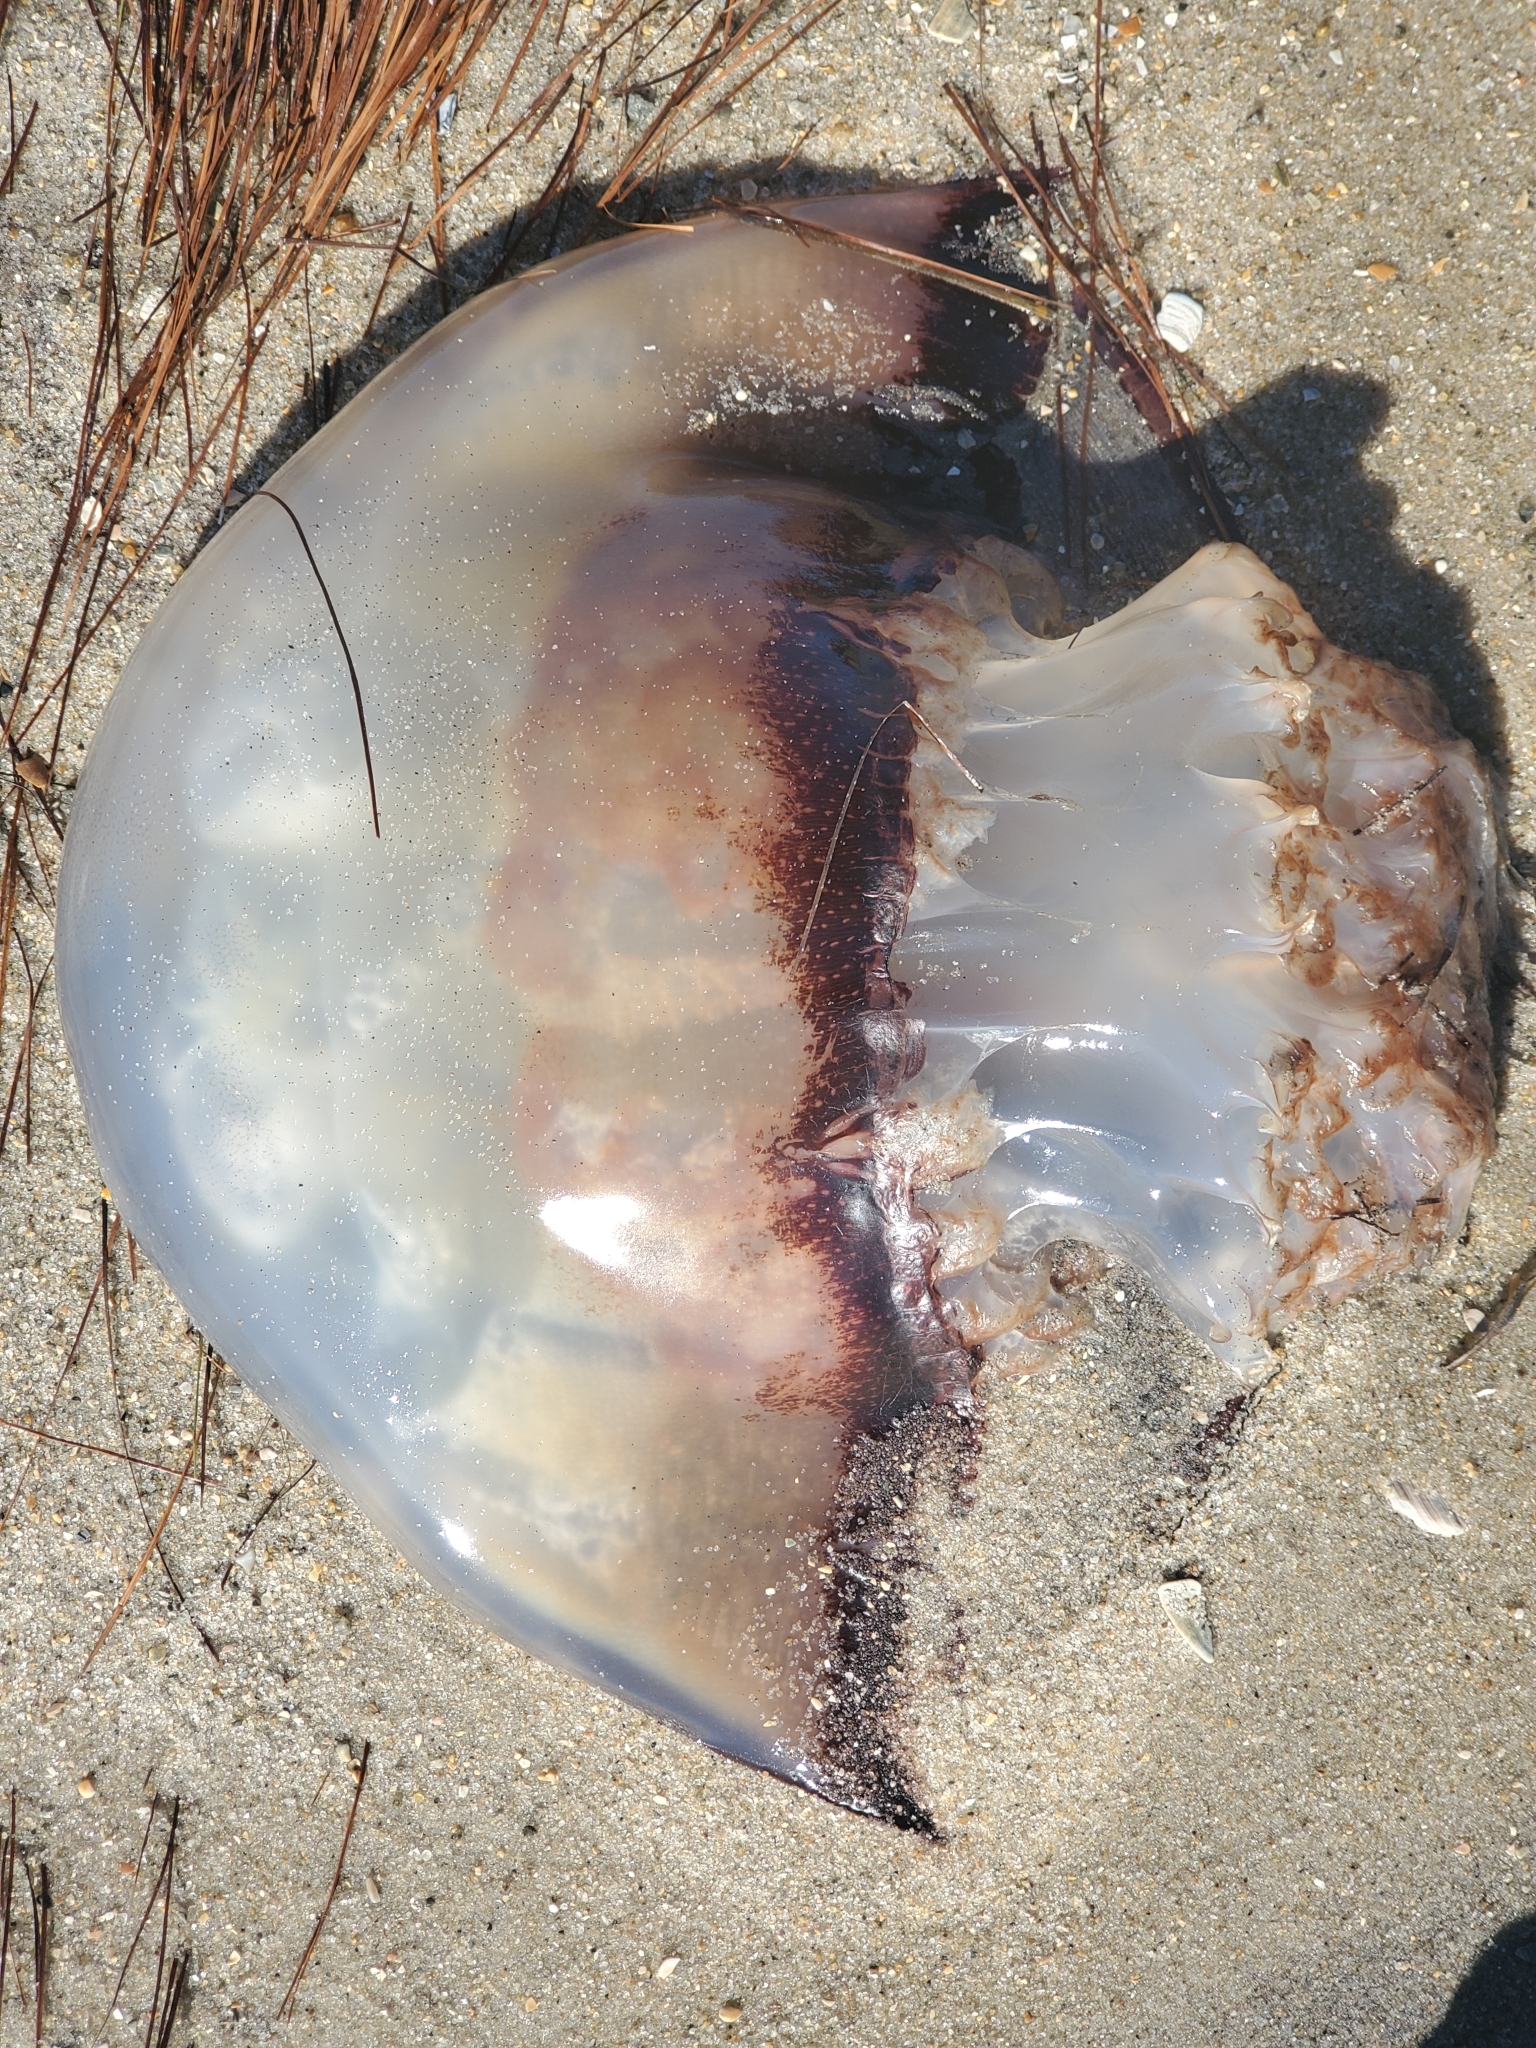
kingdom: Animalia
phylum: Cnidaria
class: Scyphozoa
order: Rhizostomeae
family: Stomolophidae
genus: Stomolophus
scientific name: Stomolophus meleagris
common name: Cabbagehead
